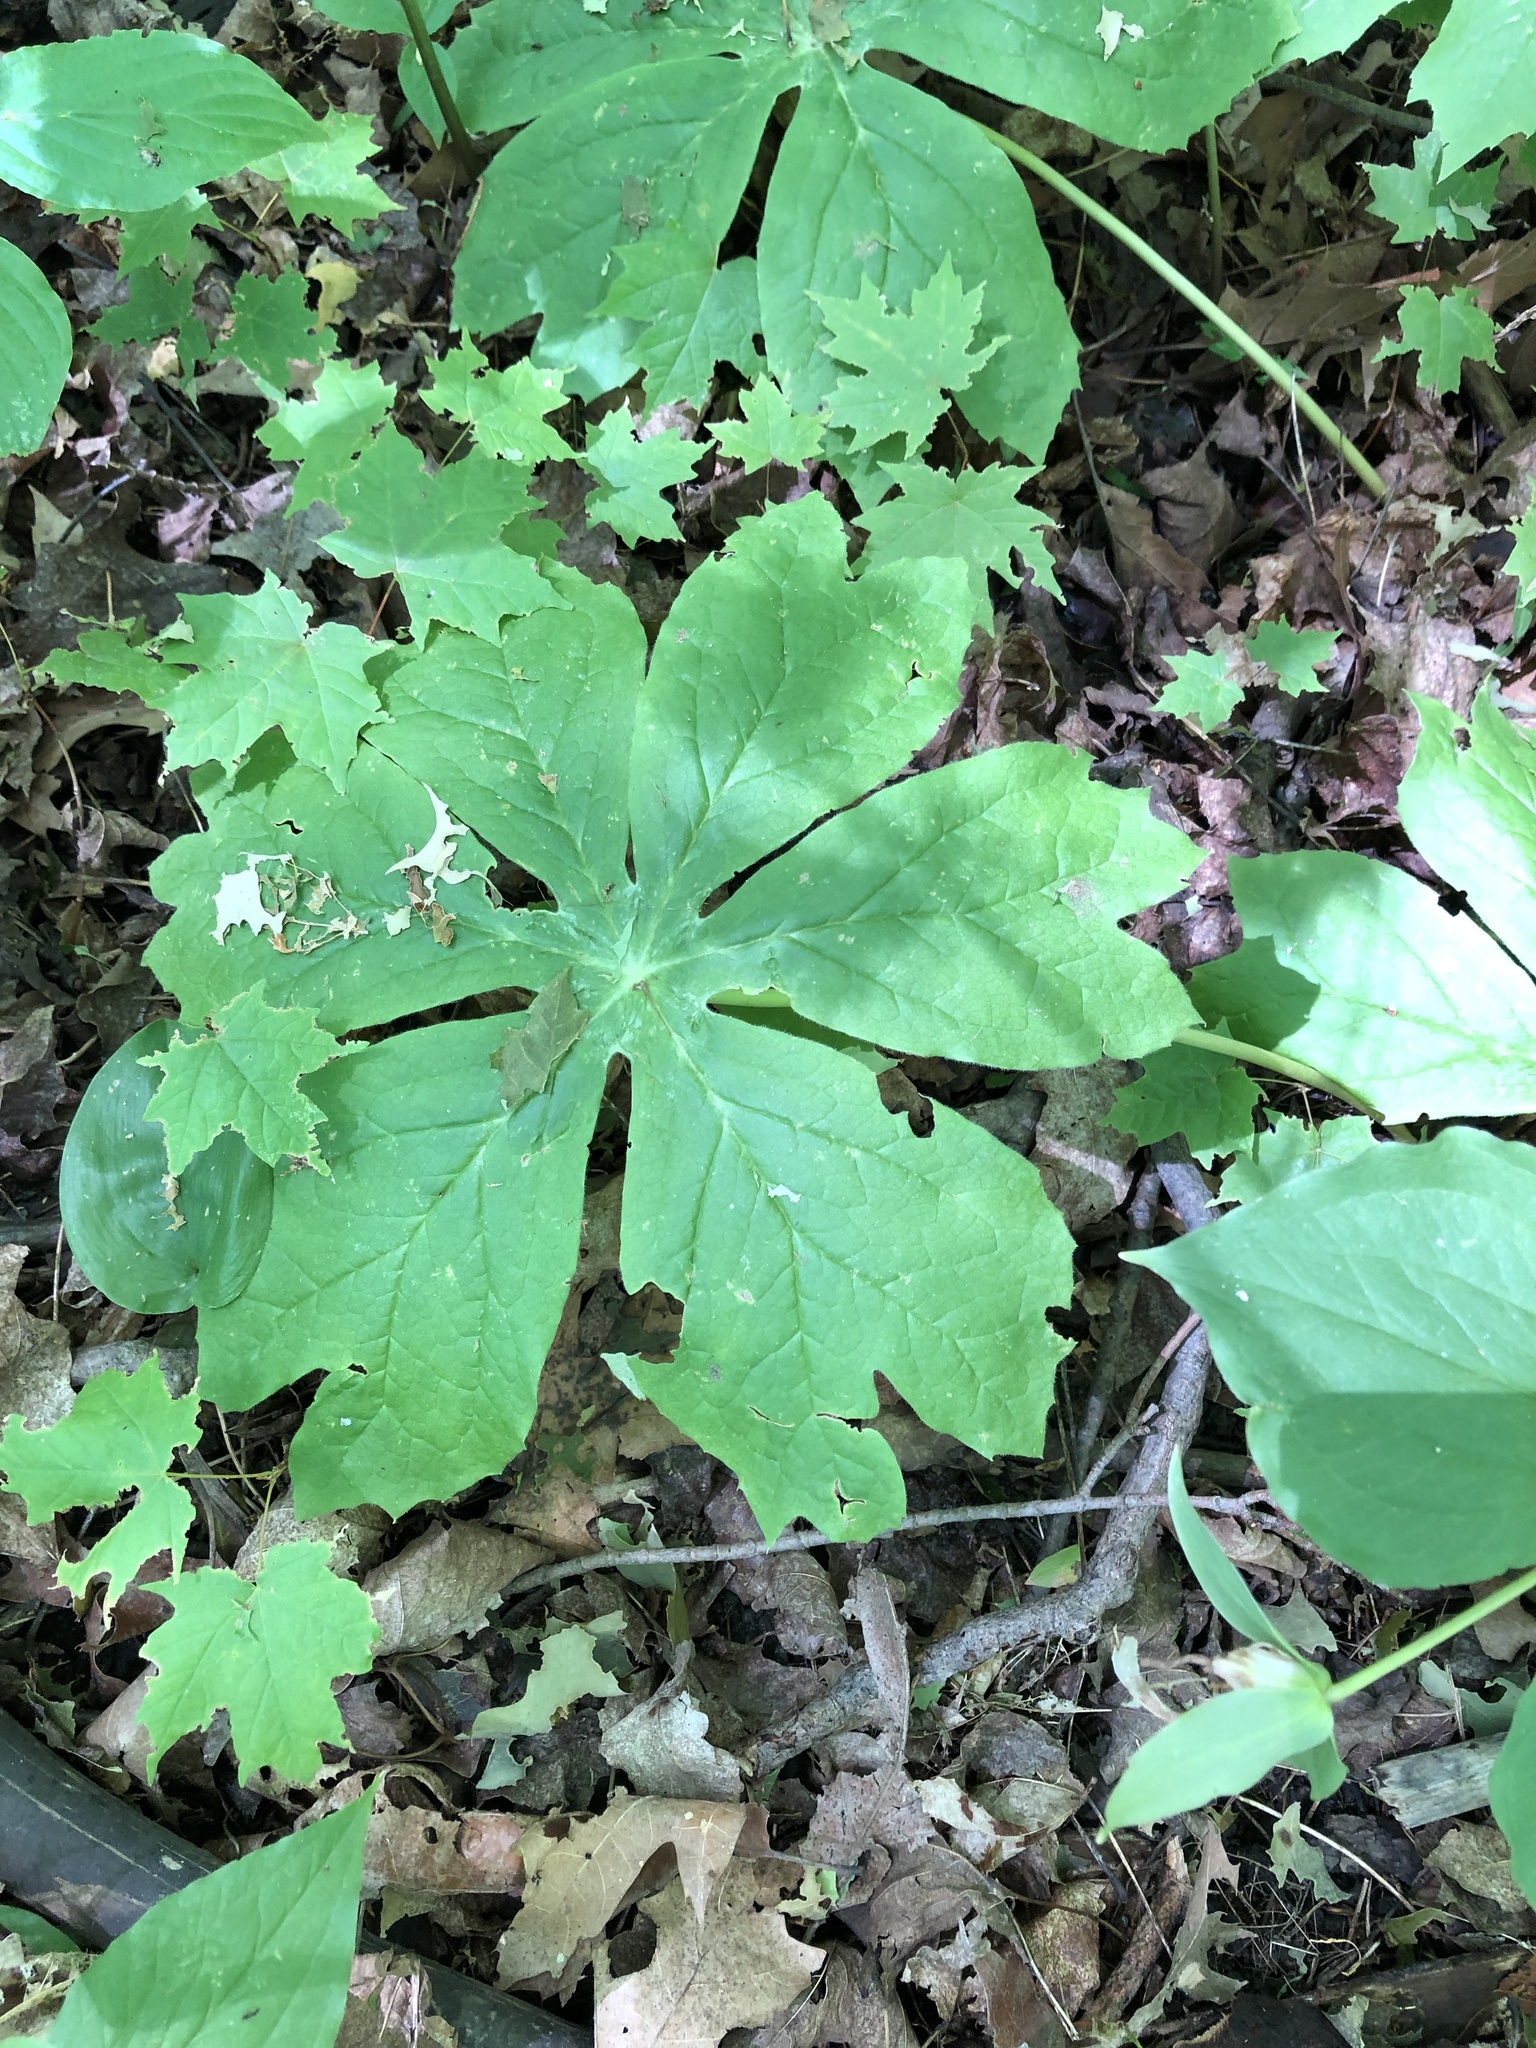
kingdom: Plantae
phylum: Tracheophyta
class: Magnoliopsida
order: Ranunculales
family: Berberidaceae
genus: Podophyllum
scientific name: Podophyllum peltatum
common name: Wild mandrake
